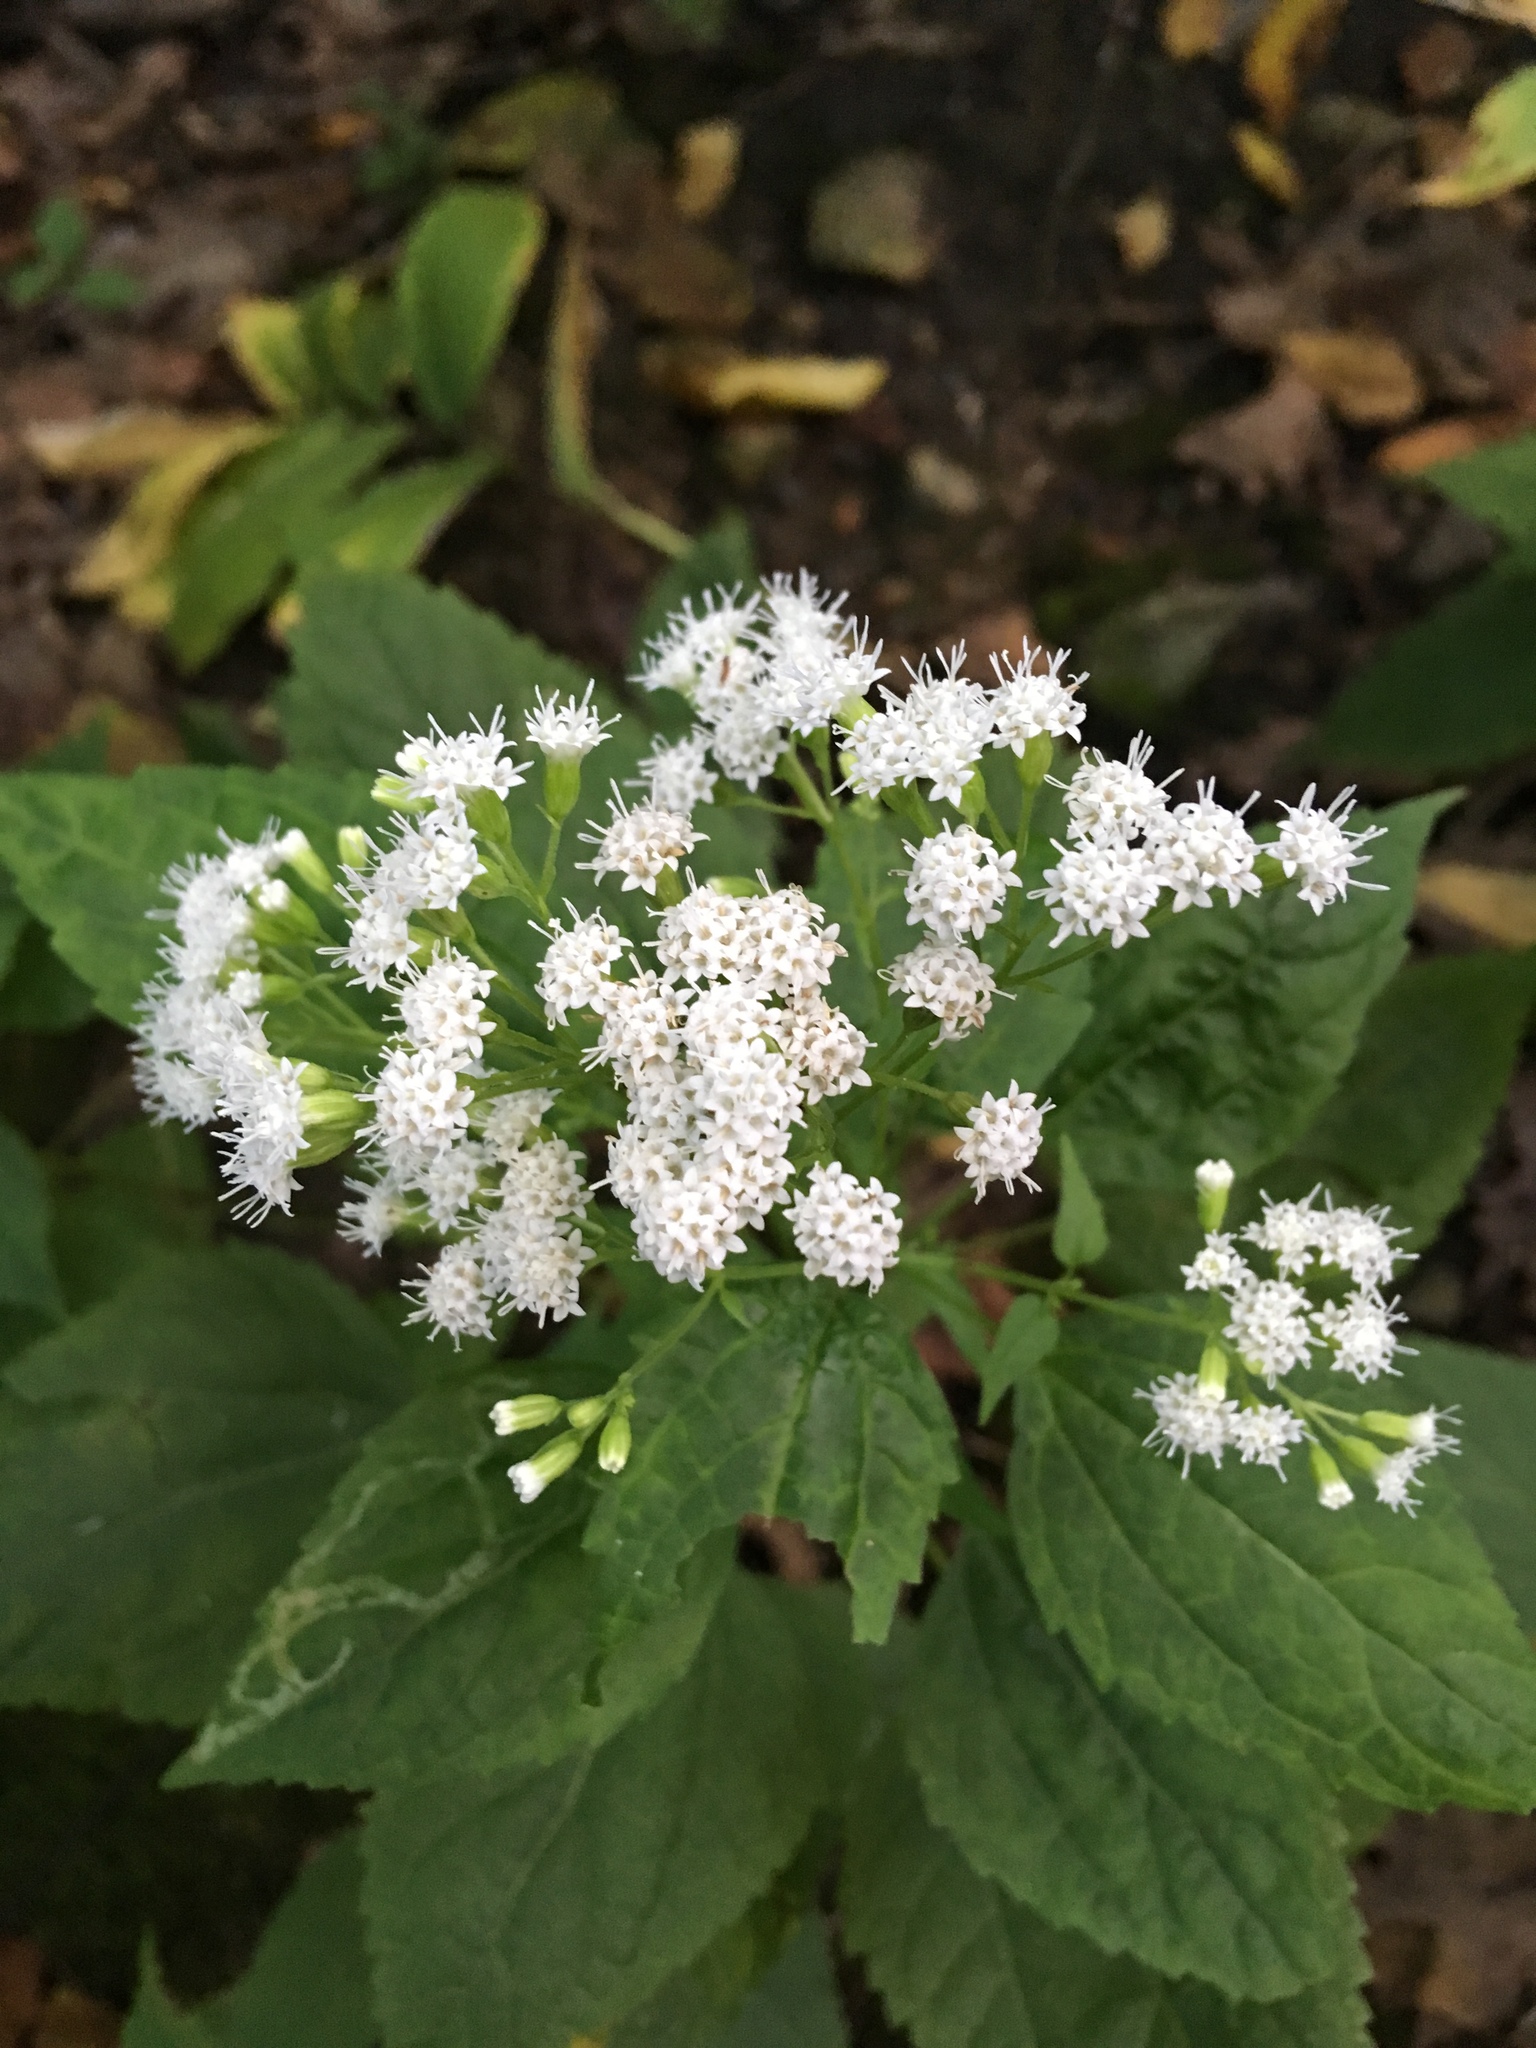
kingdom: Plantae
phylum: Tracheophyta
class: Magnoliopsida
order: Asterales
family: Asteraceae
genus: Ageratina
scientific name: Ageratina altissima
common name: White snakeroot
